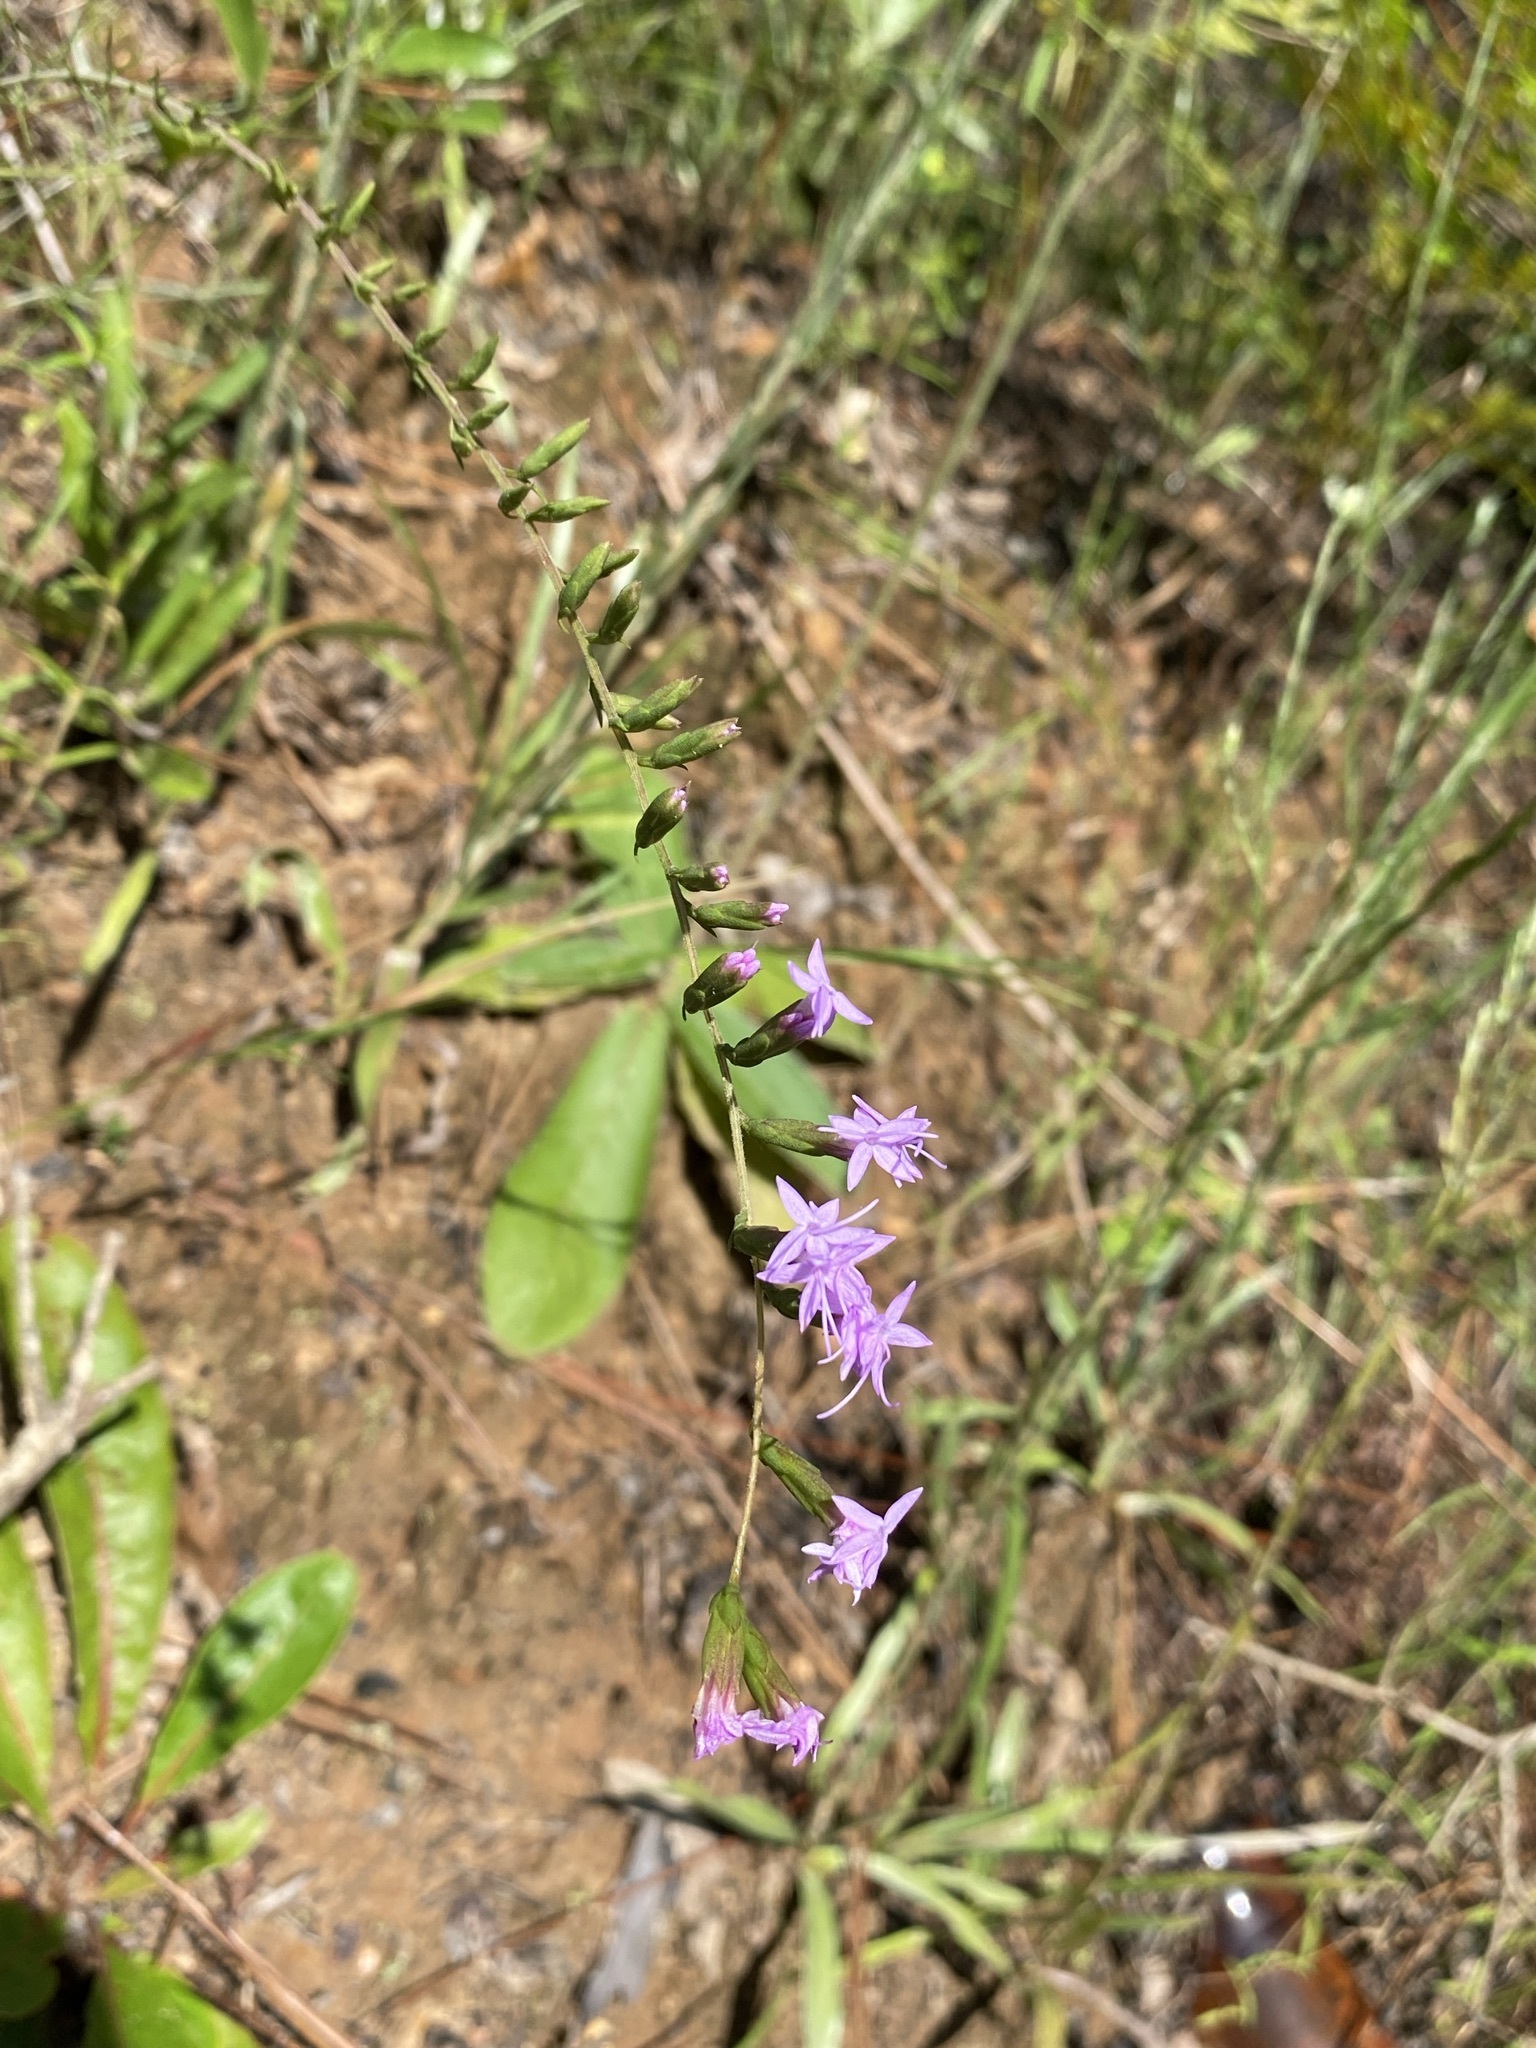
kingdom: Plantae
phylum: Tracheophyta
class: Magnoliopsida
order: Asterales
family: Asteraceae
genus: Liatris
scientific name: Liatris pauciflora
